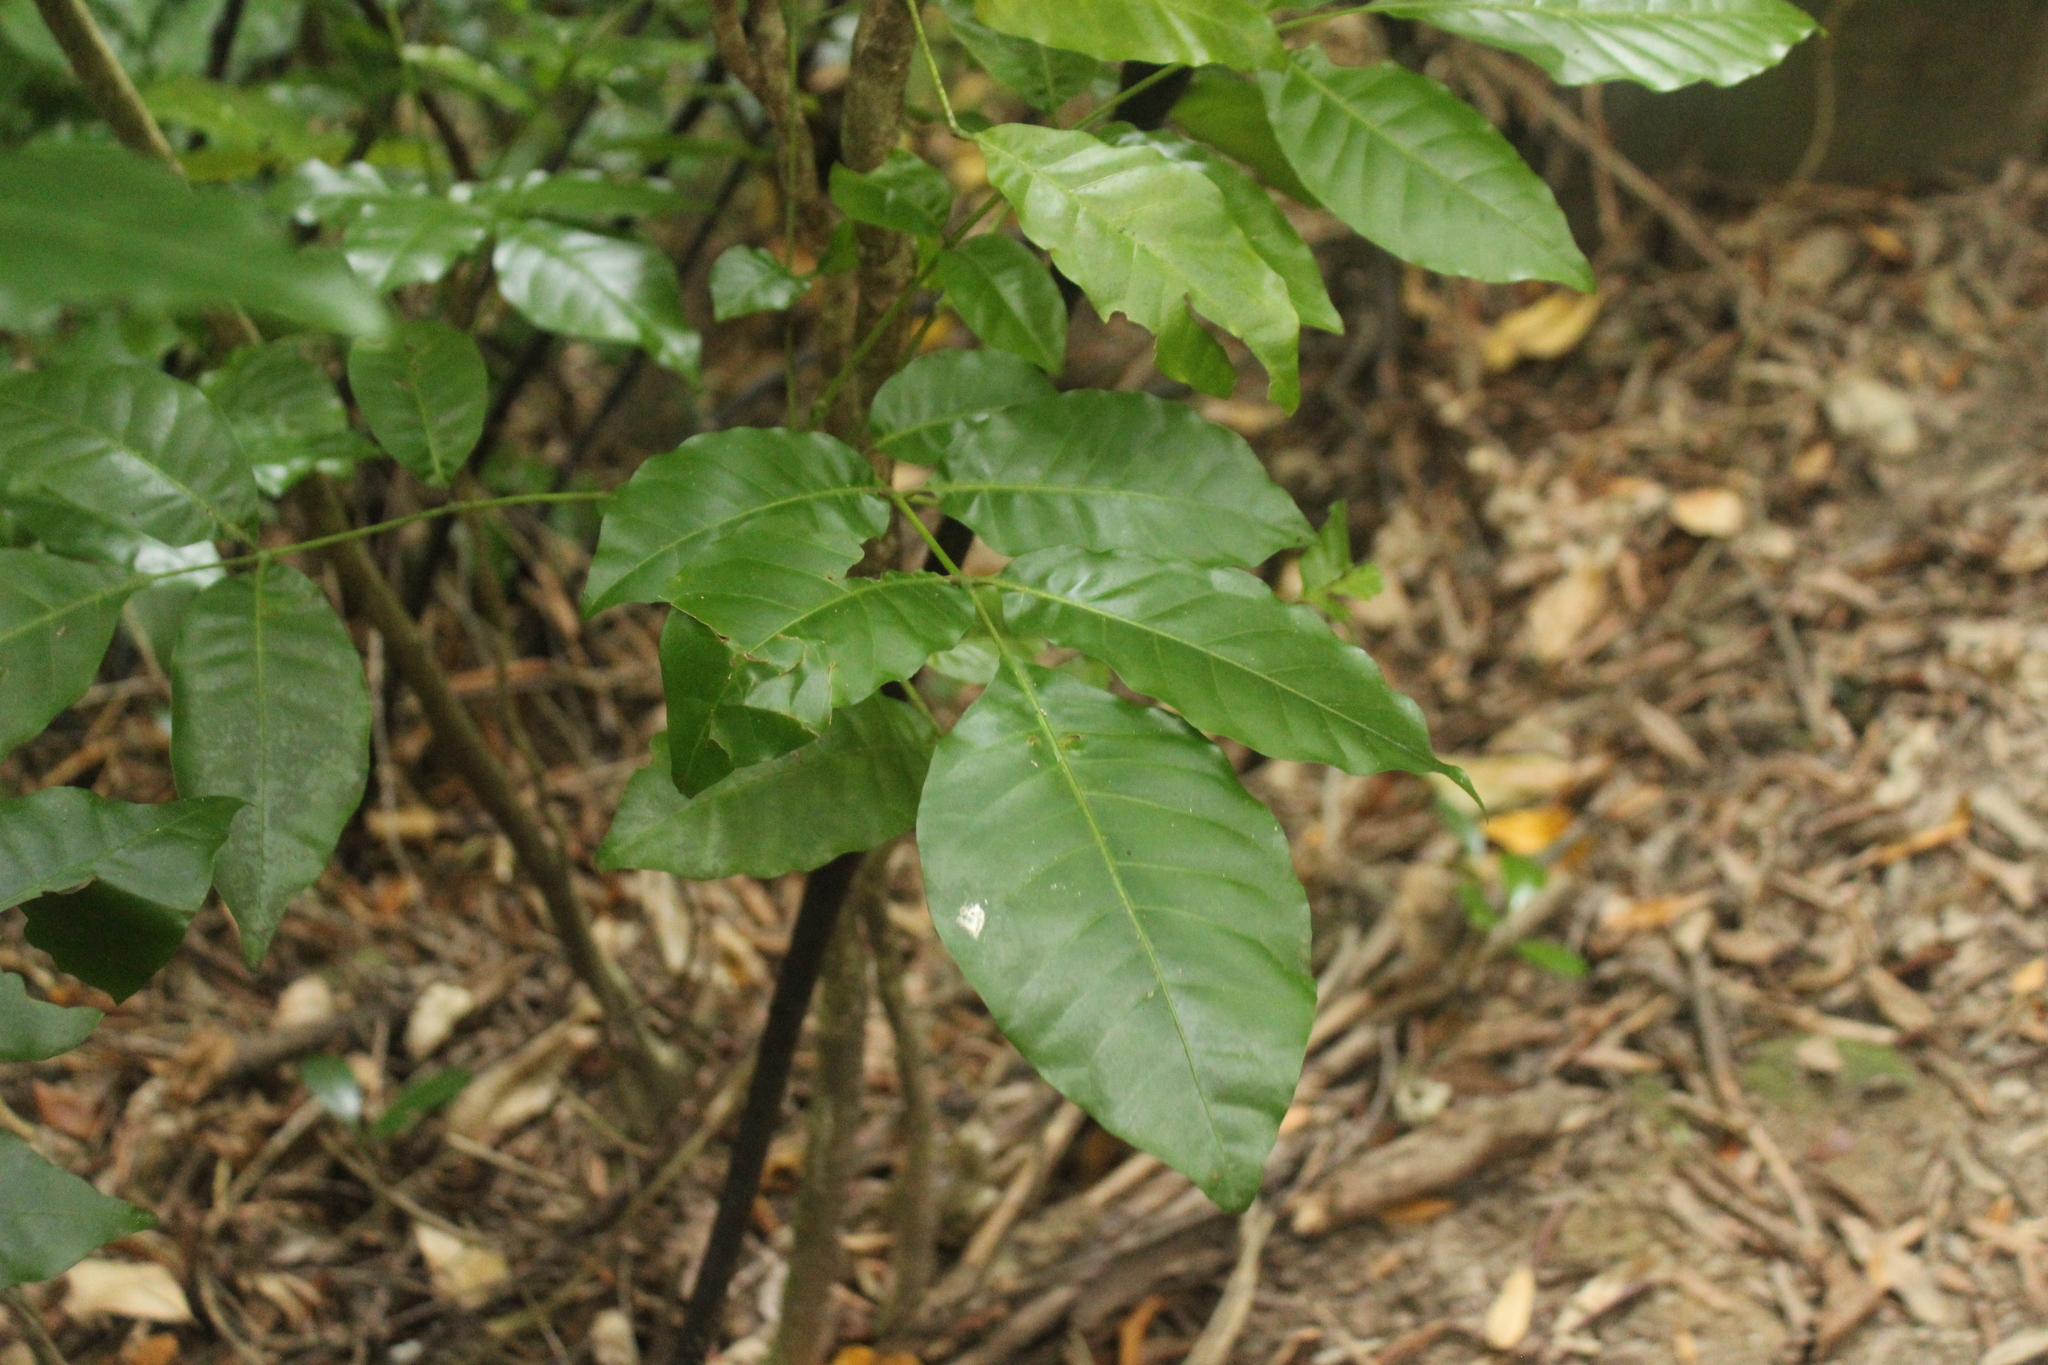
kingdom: Plantae
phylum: Tracheophyta
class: Magnoliopsida
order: Sapindales
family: Meliaceae
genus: Didymocheton
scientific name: Didymocheton spectabilis
